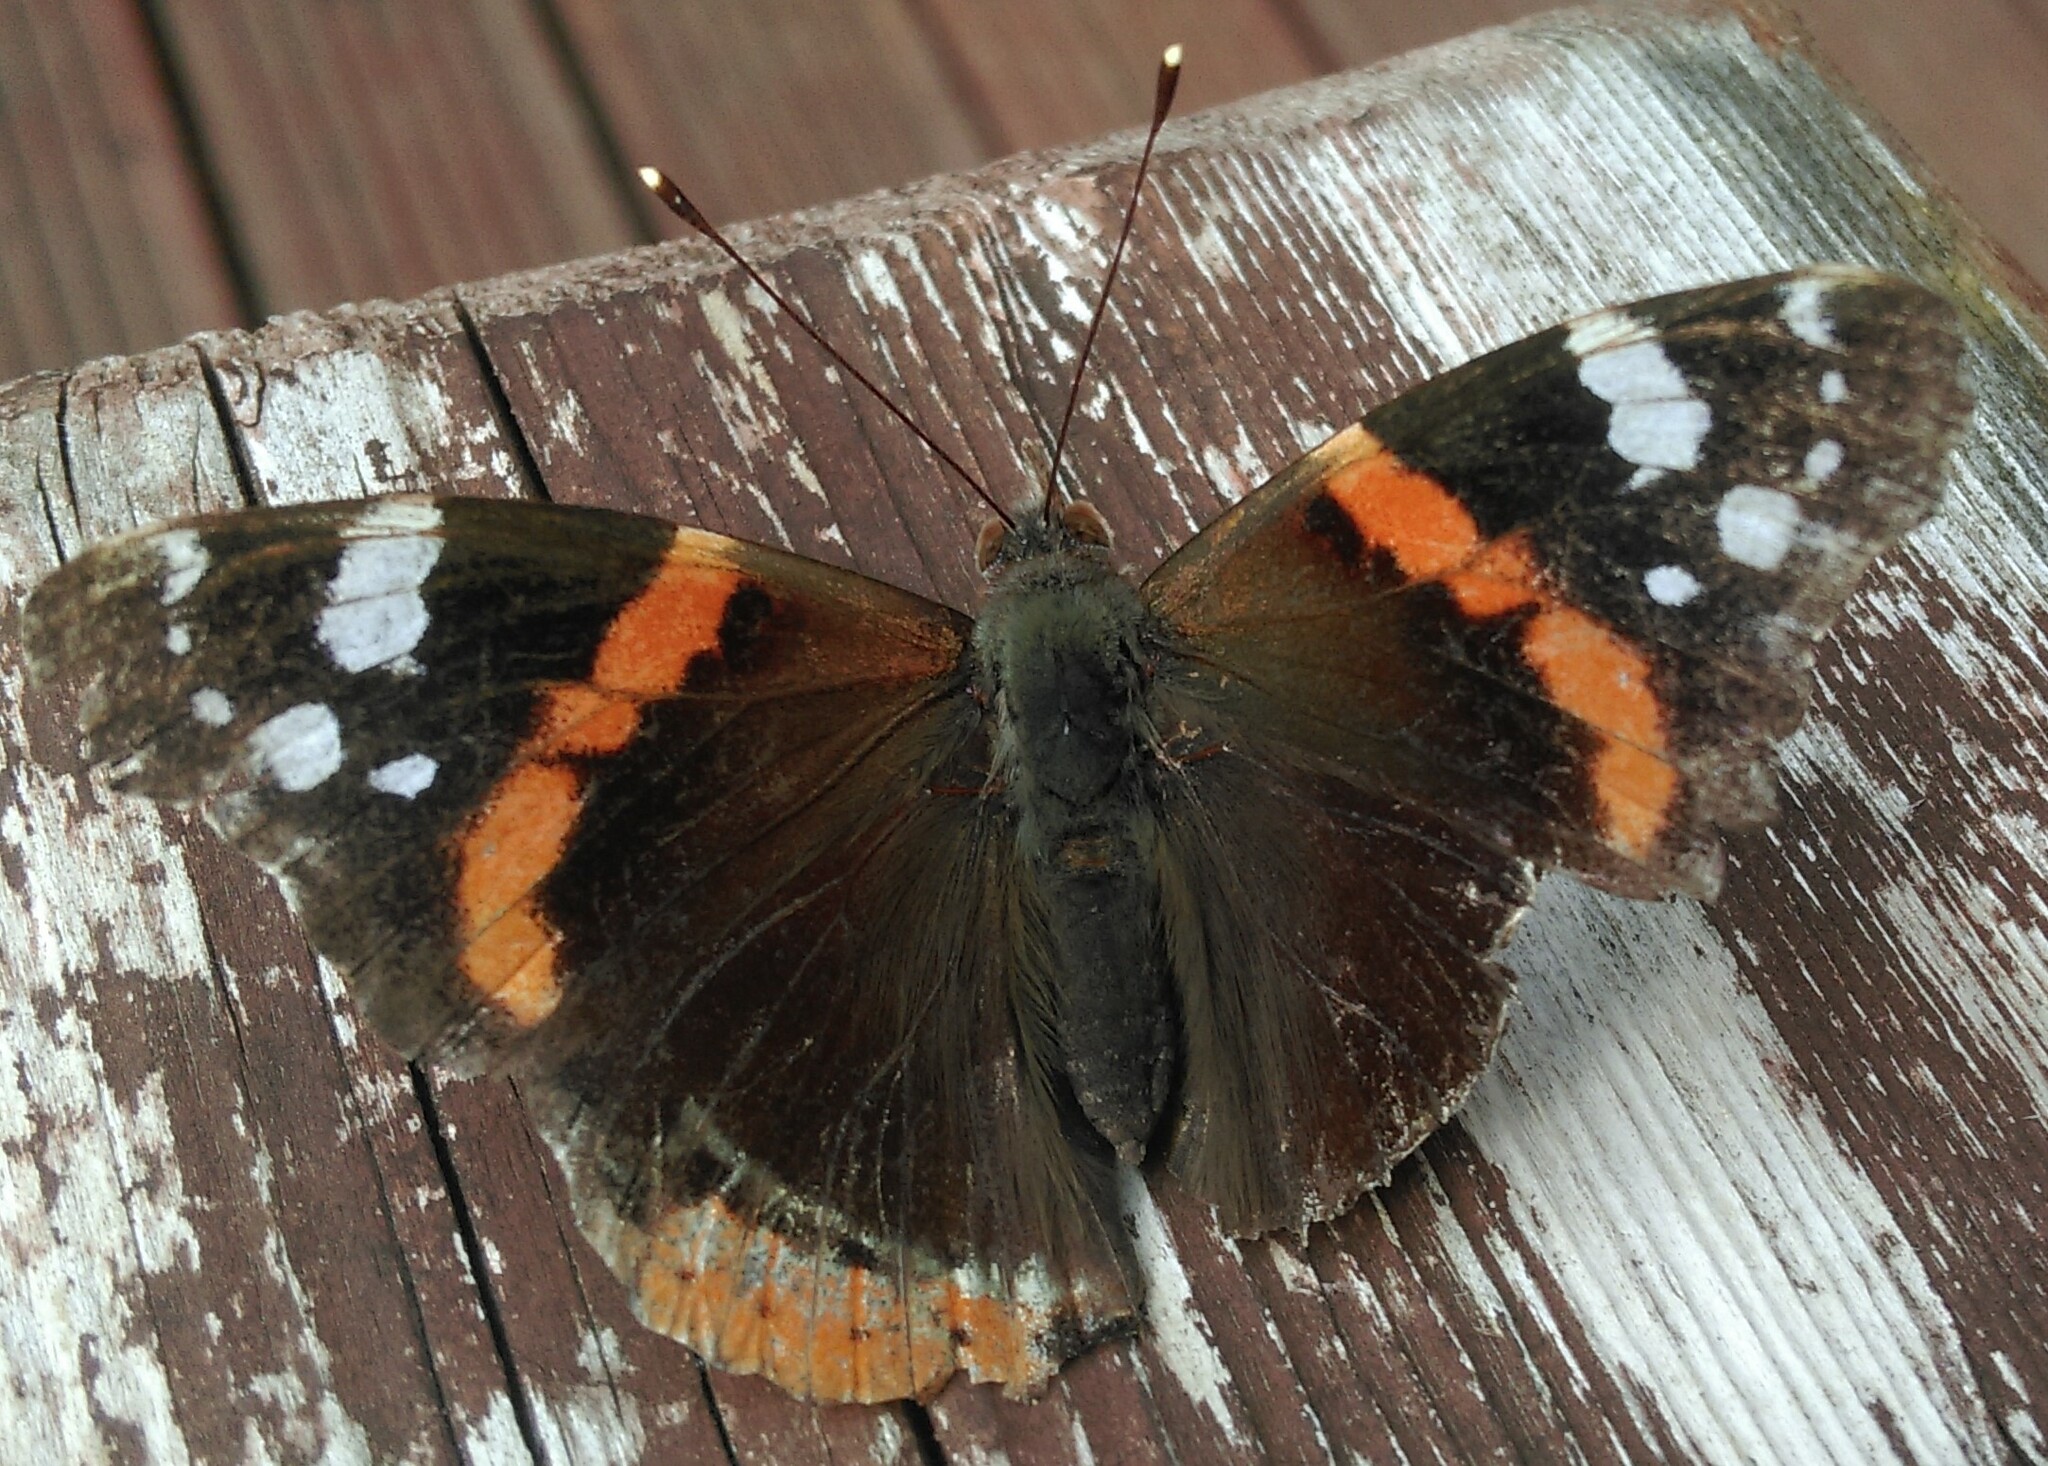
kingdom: Animalia
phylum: Arthropoda
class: Insecta
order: Lepidoptera
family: Nymphalidae
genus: Vanessa
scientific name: Vanessa atalanta
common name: Red admiral
